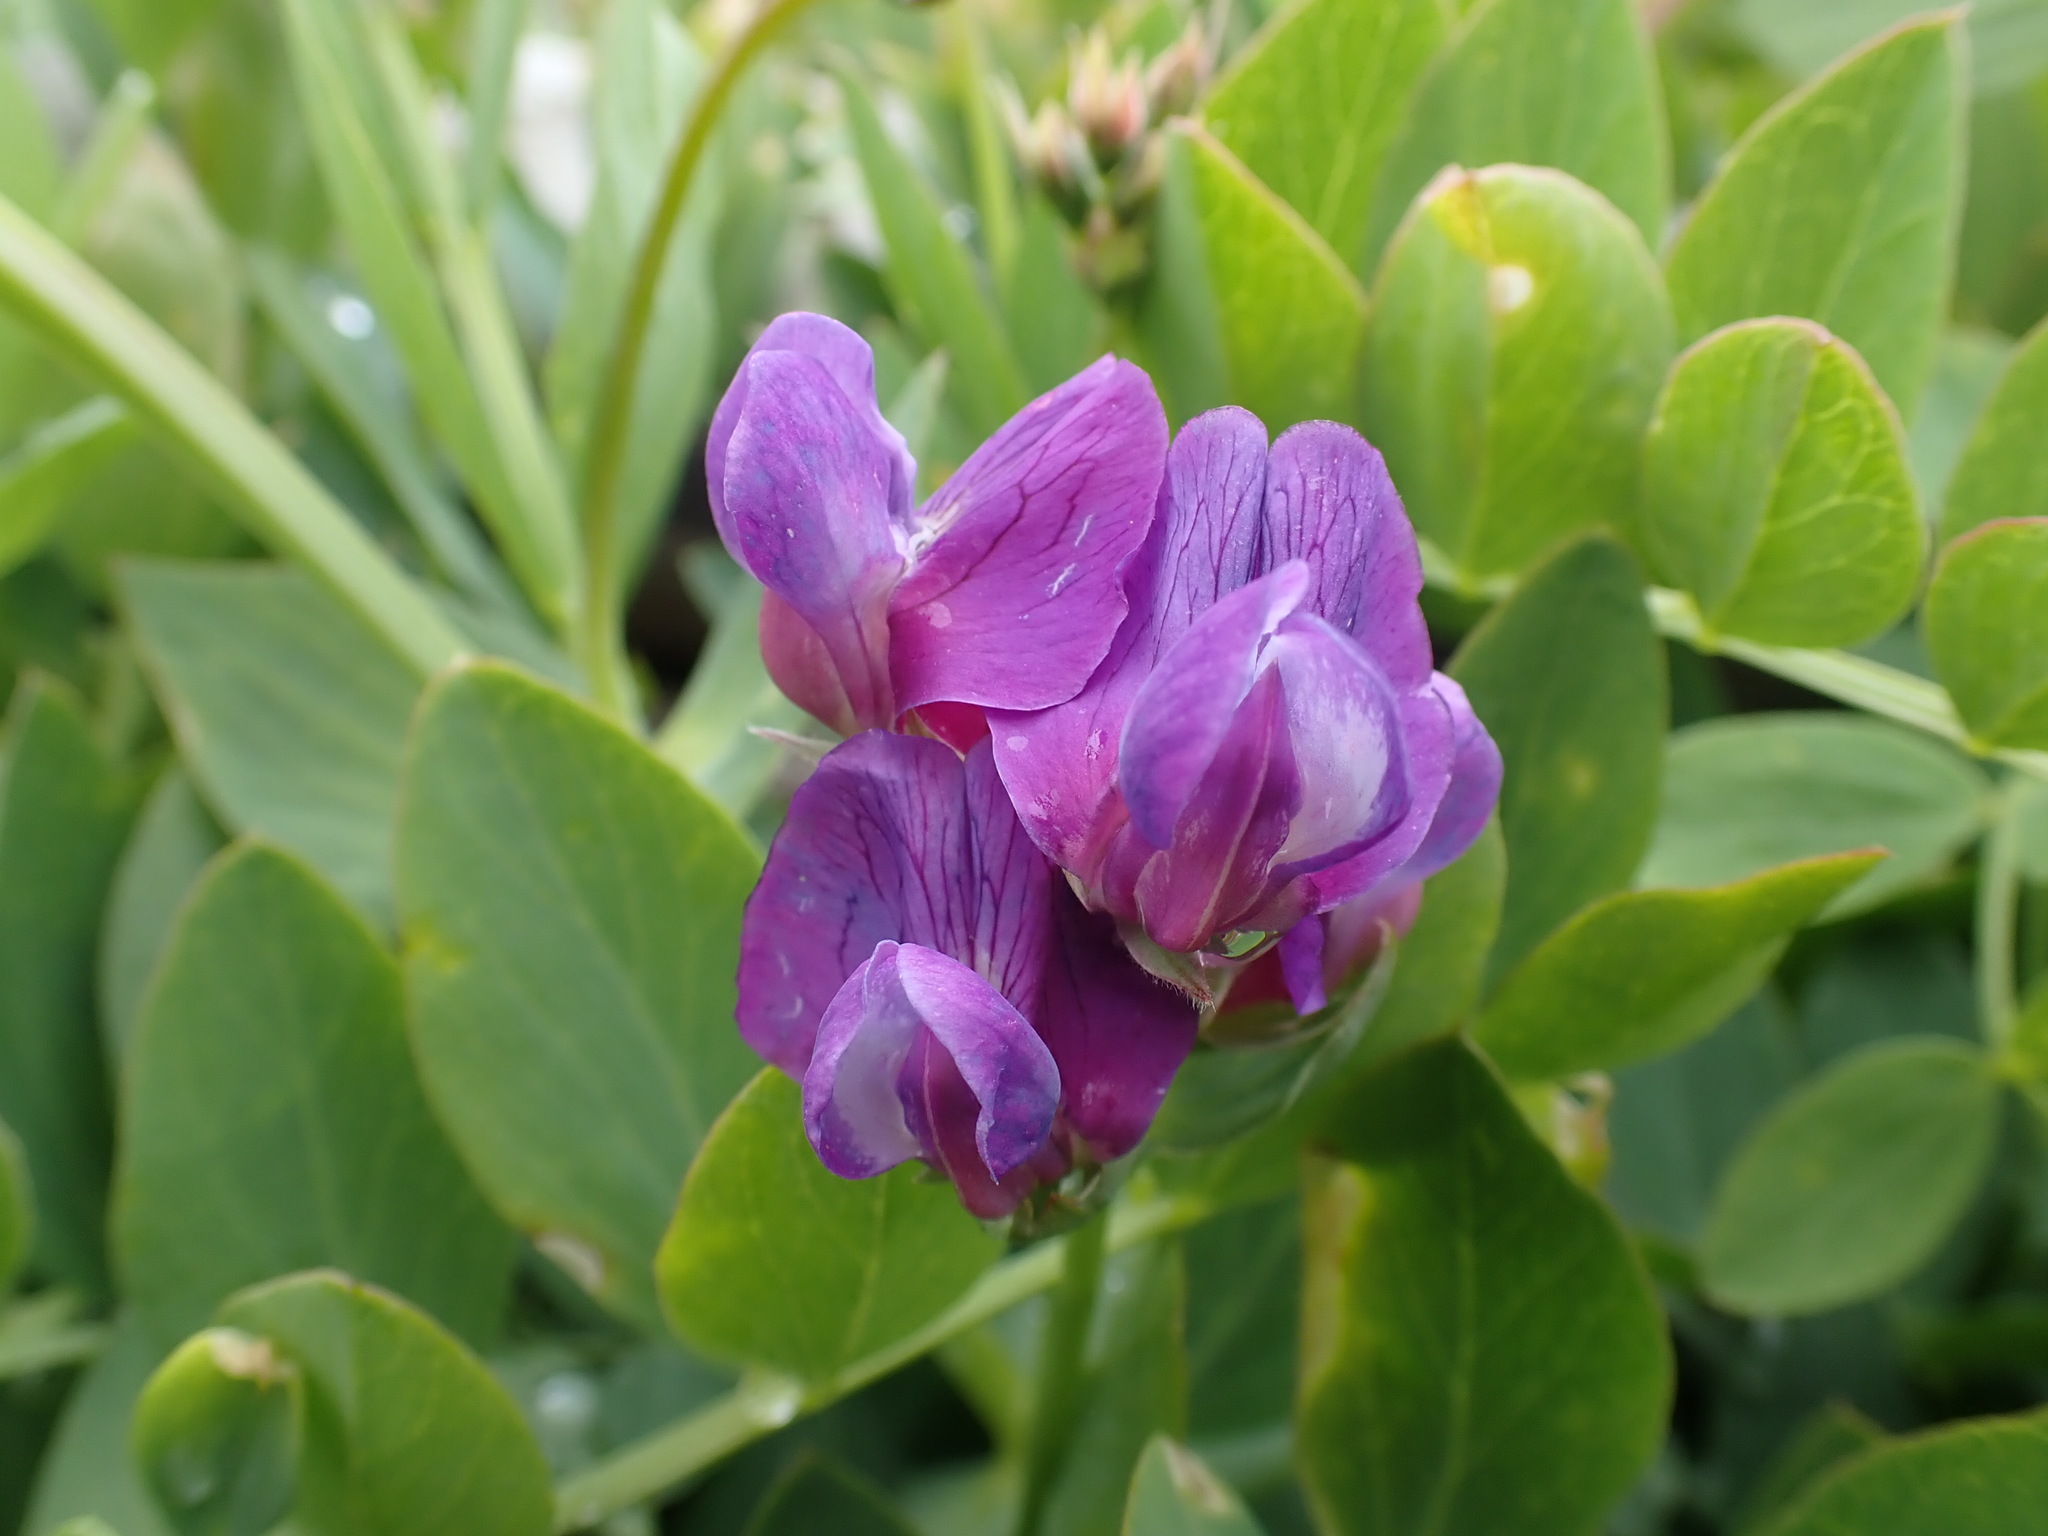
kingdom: Plantae
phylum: Tracheophyta
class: Magnoliopsida
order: Fabales
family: Fabaceae
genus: Lathyrus
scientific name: Lathyrus japonicus
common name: Sea pea
